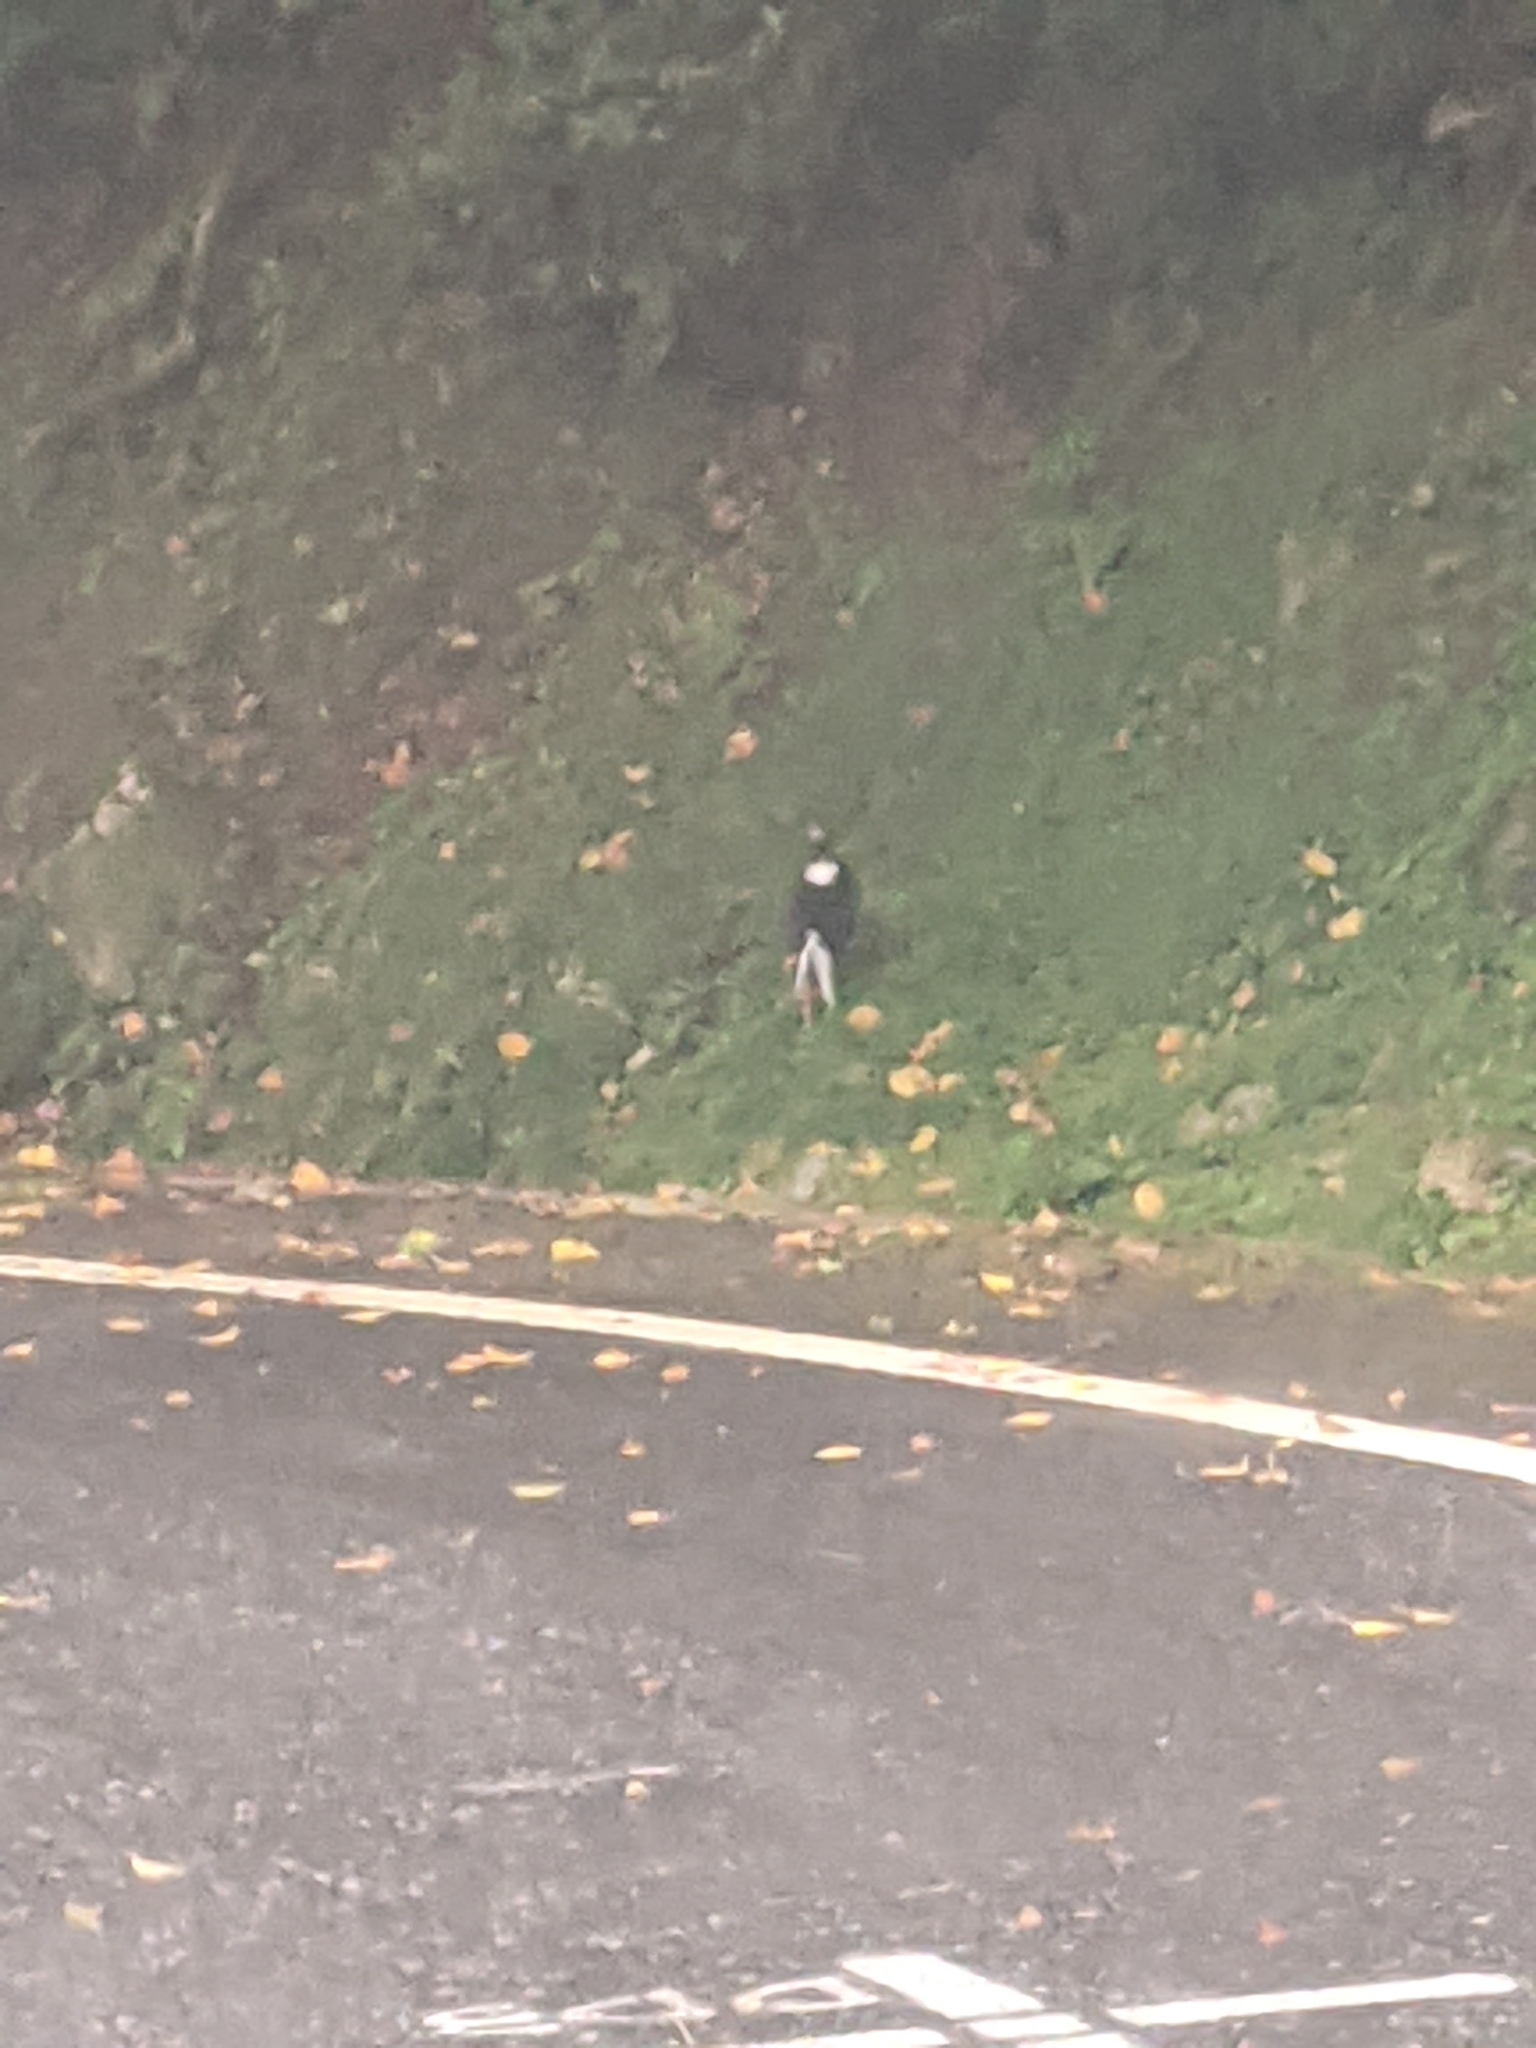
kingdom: Animalia
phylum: Chordata
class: Aves
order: Galliformes
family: Phasianidae
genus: Lophura
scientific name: Lophura swinhoii
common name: Swinhoe's pheasant
